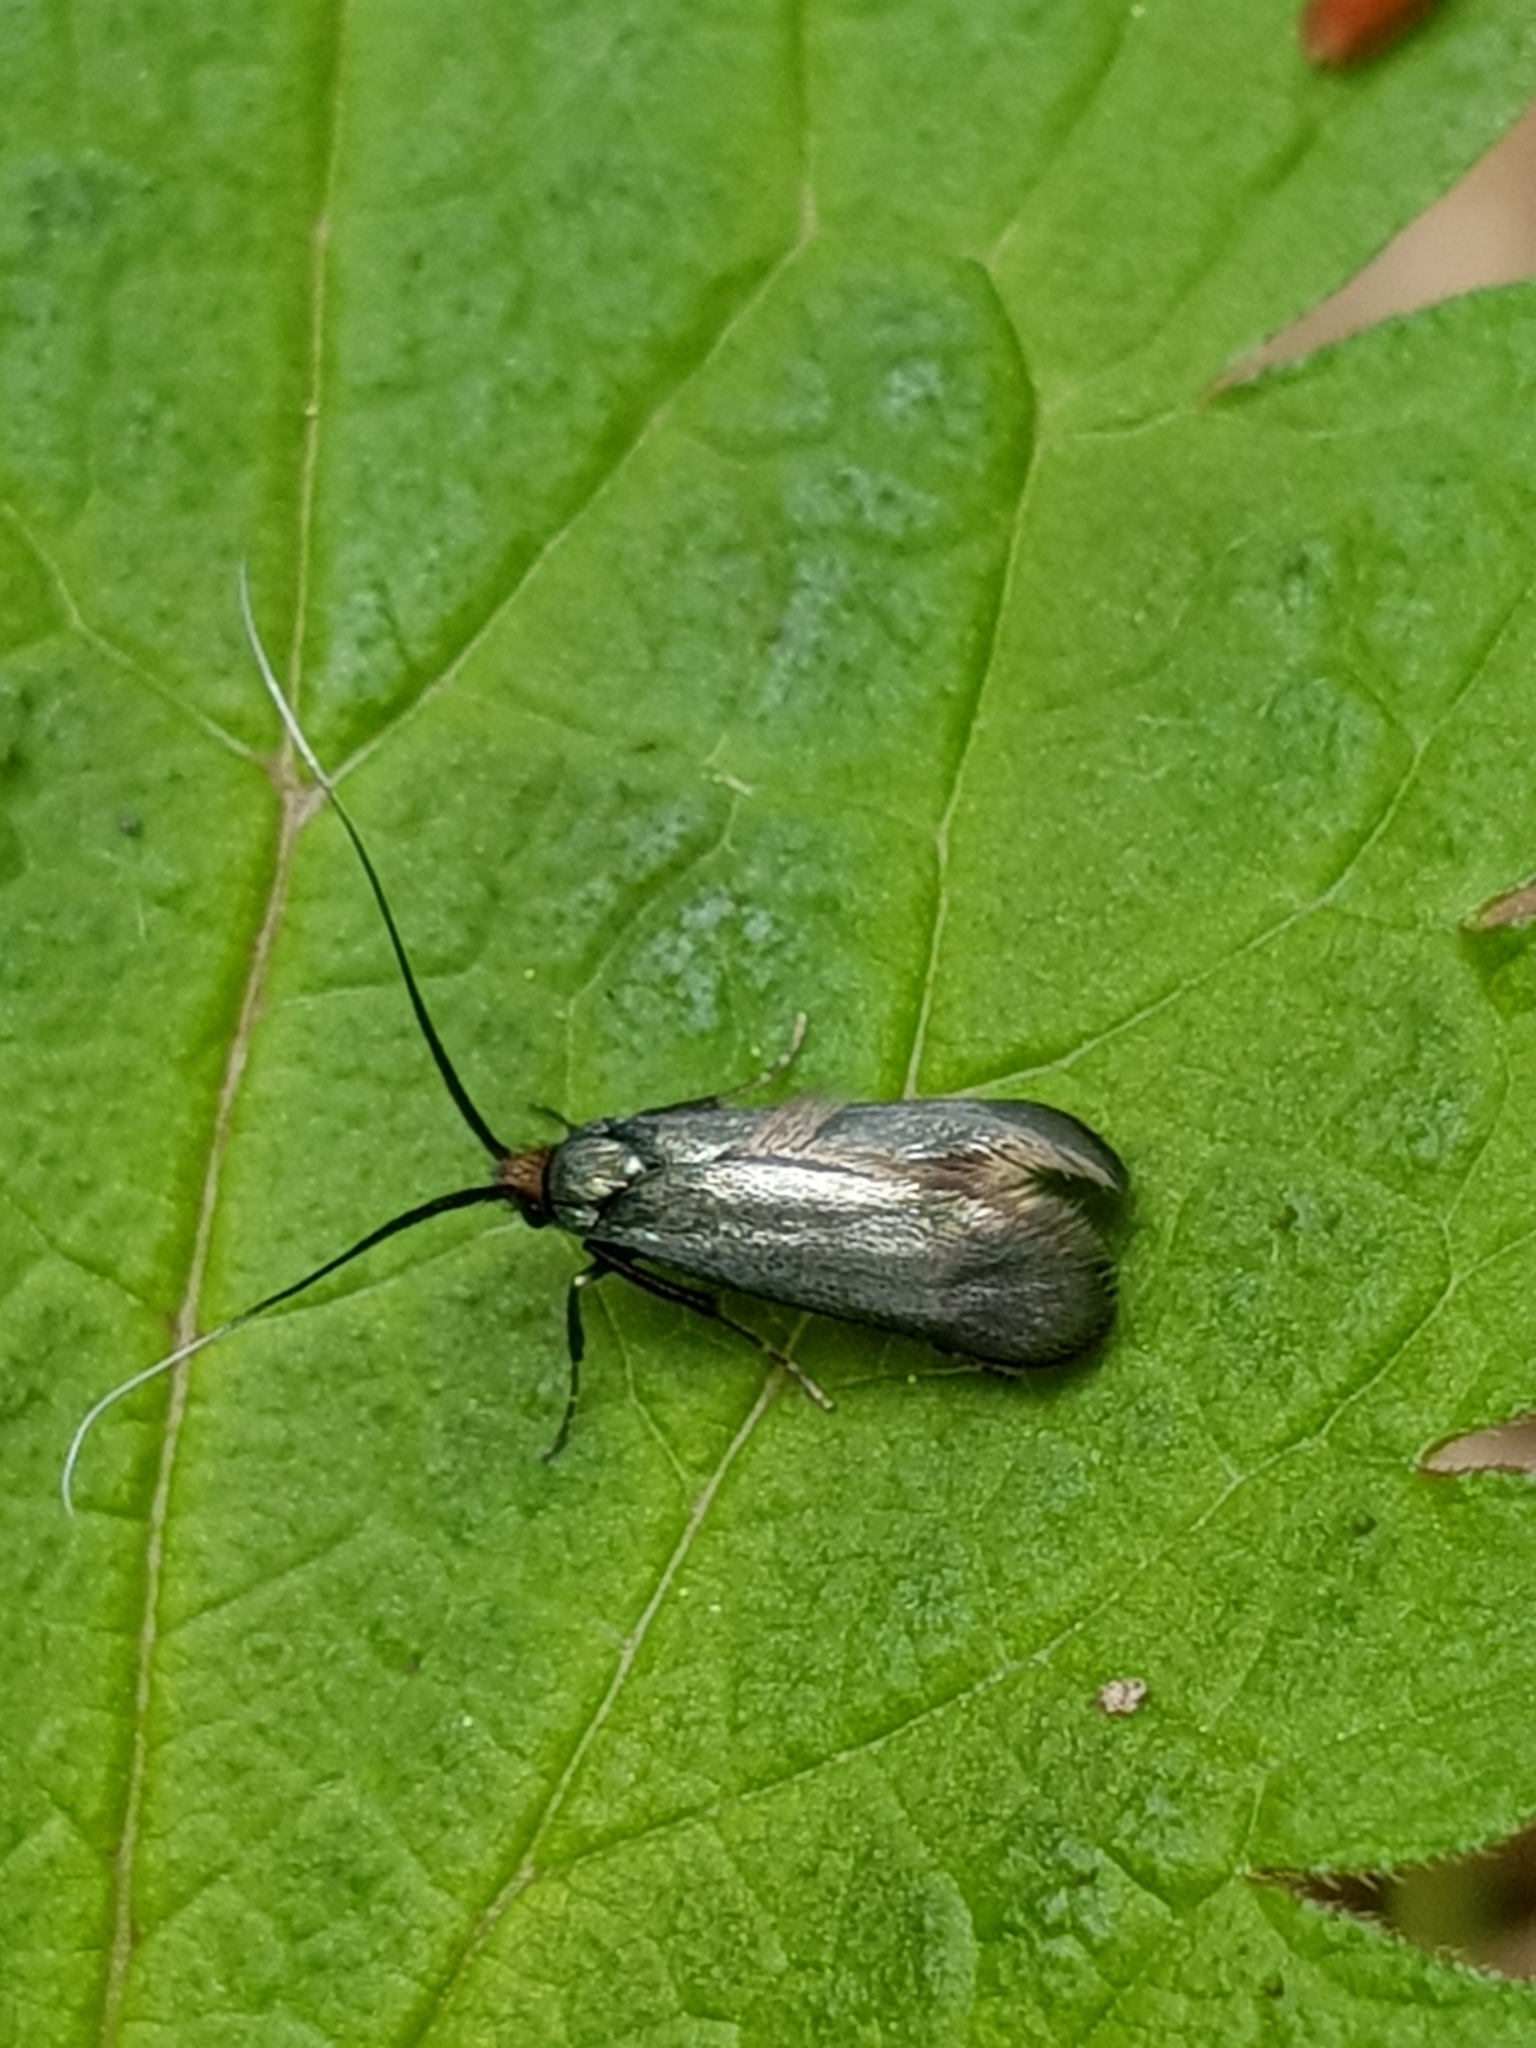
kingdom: Animalia
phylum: Arthropoda
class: Insecta
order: Lepidoptera
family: Adelidae
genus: Adela
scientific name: Adela viridella
